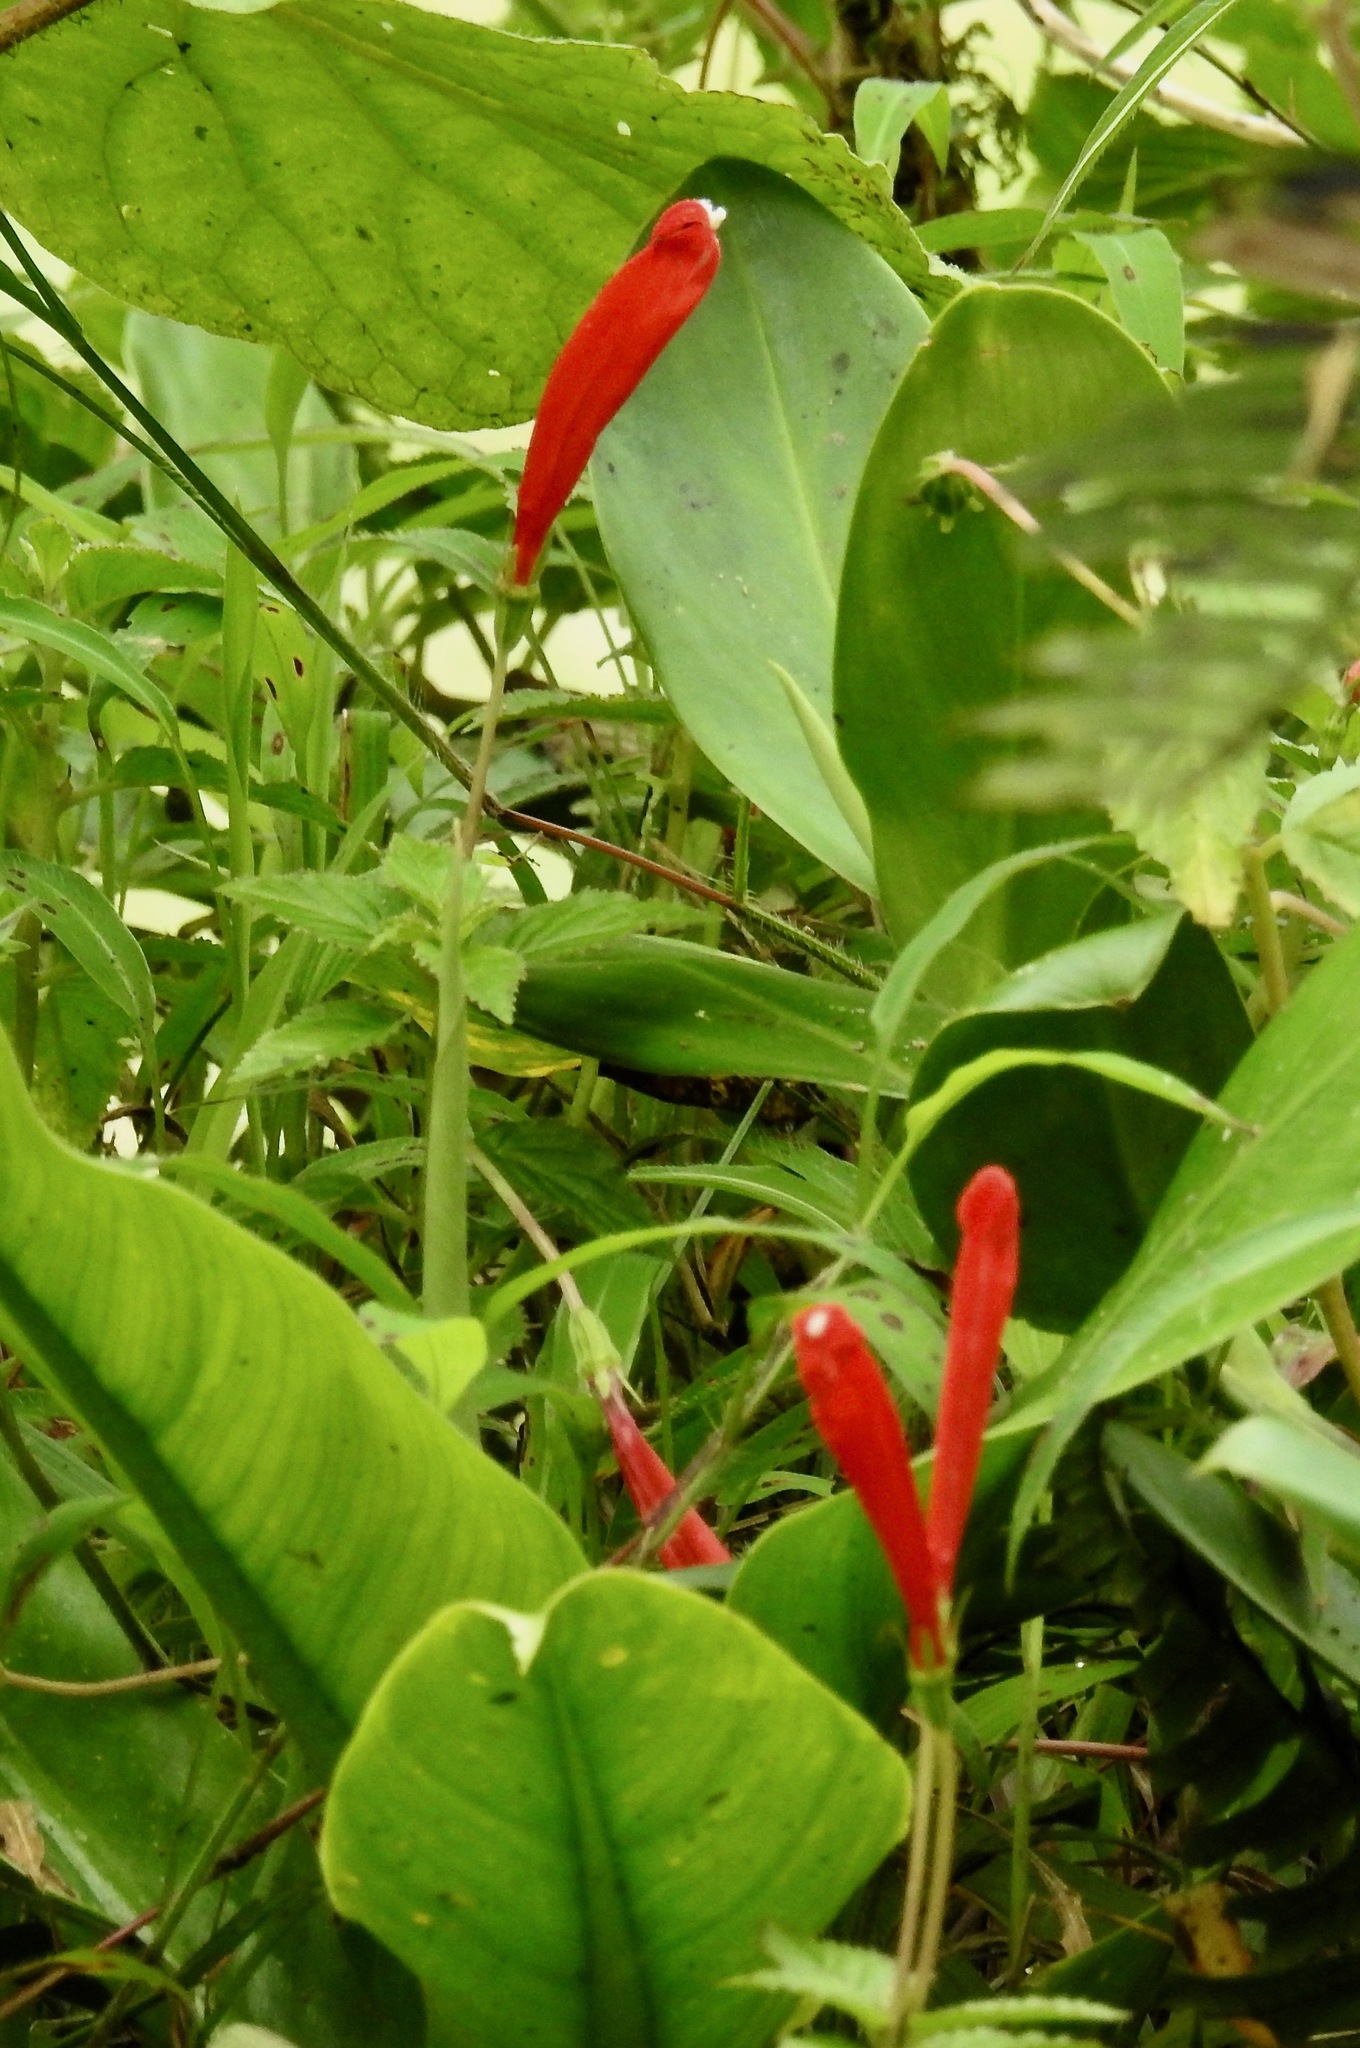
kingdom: Plantae
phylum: Tracheophyta
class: Magnoliopsida
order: Asterales
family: Campanulaceae
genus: Centropogon
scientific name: Centropogon coccineus
